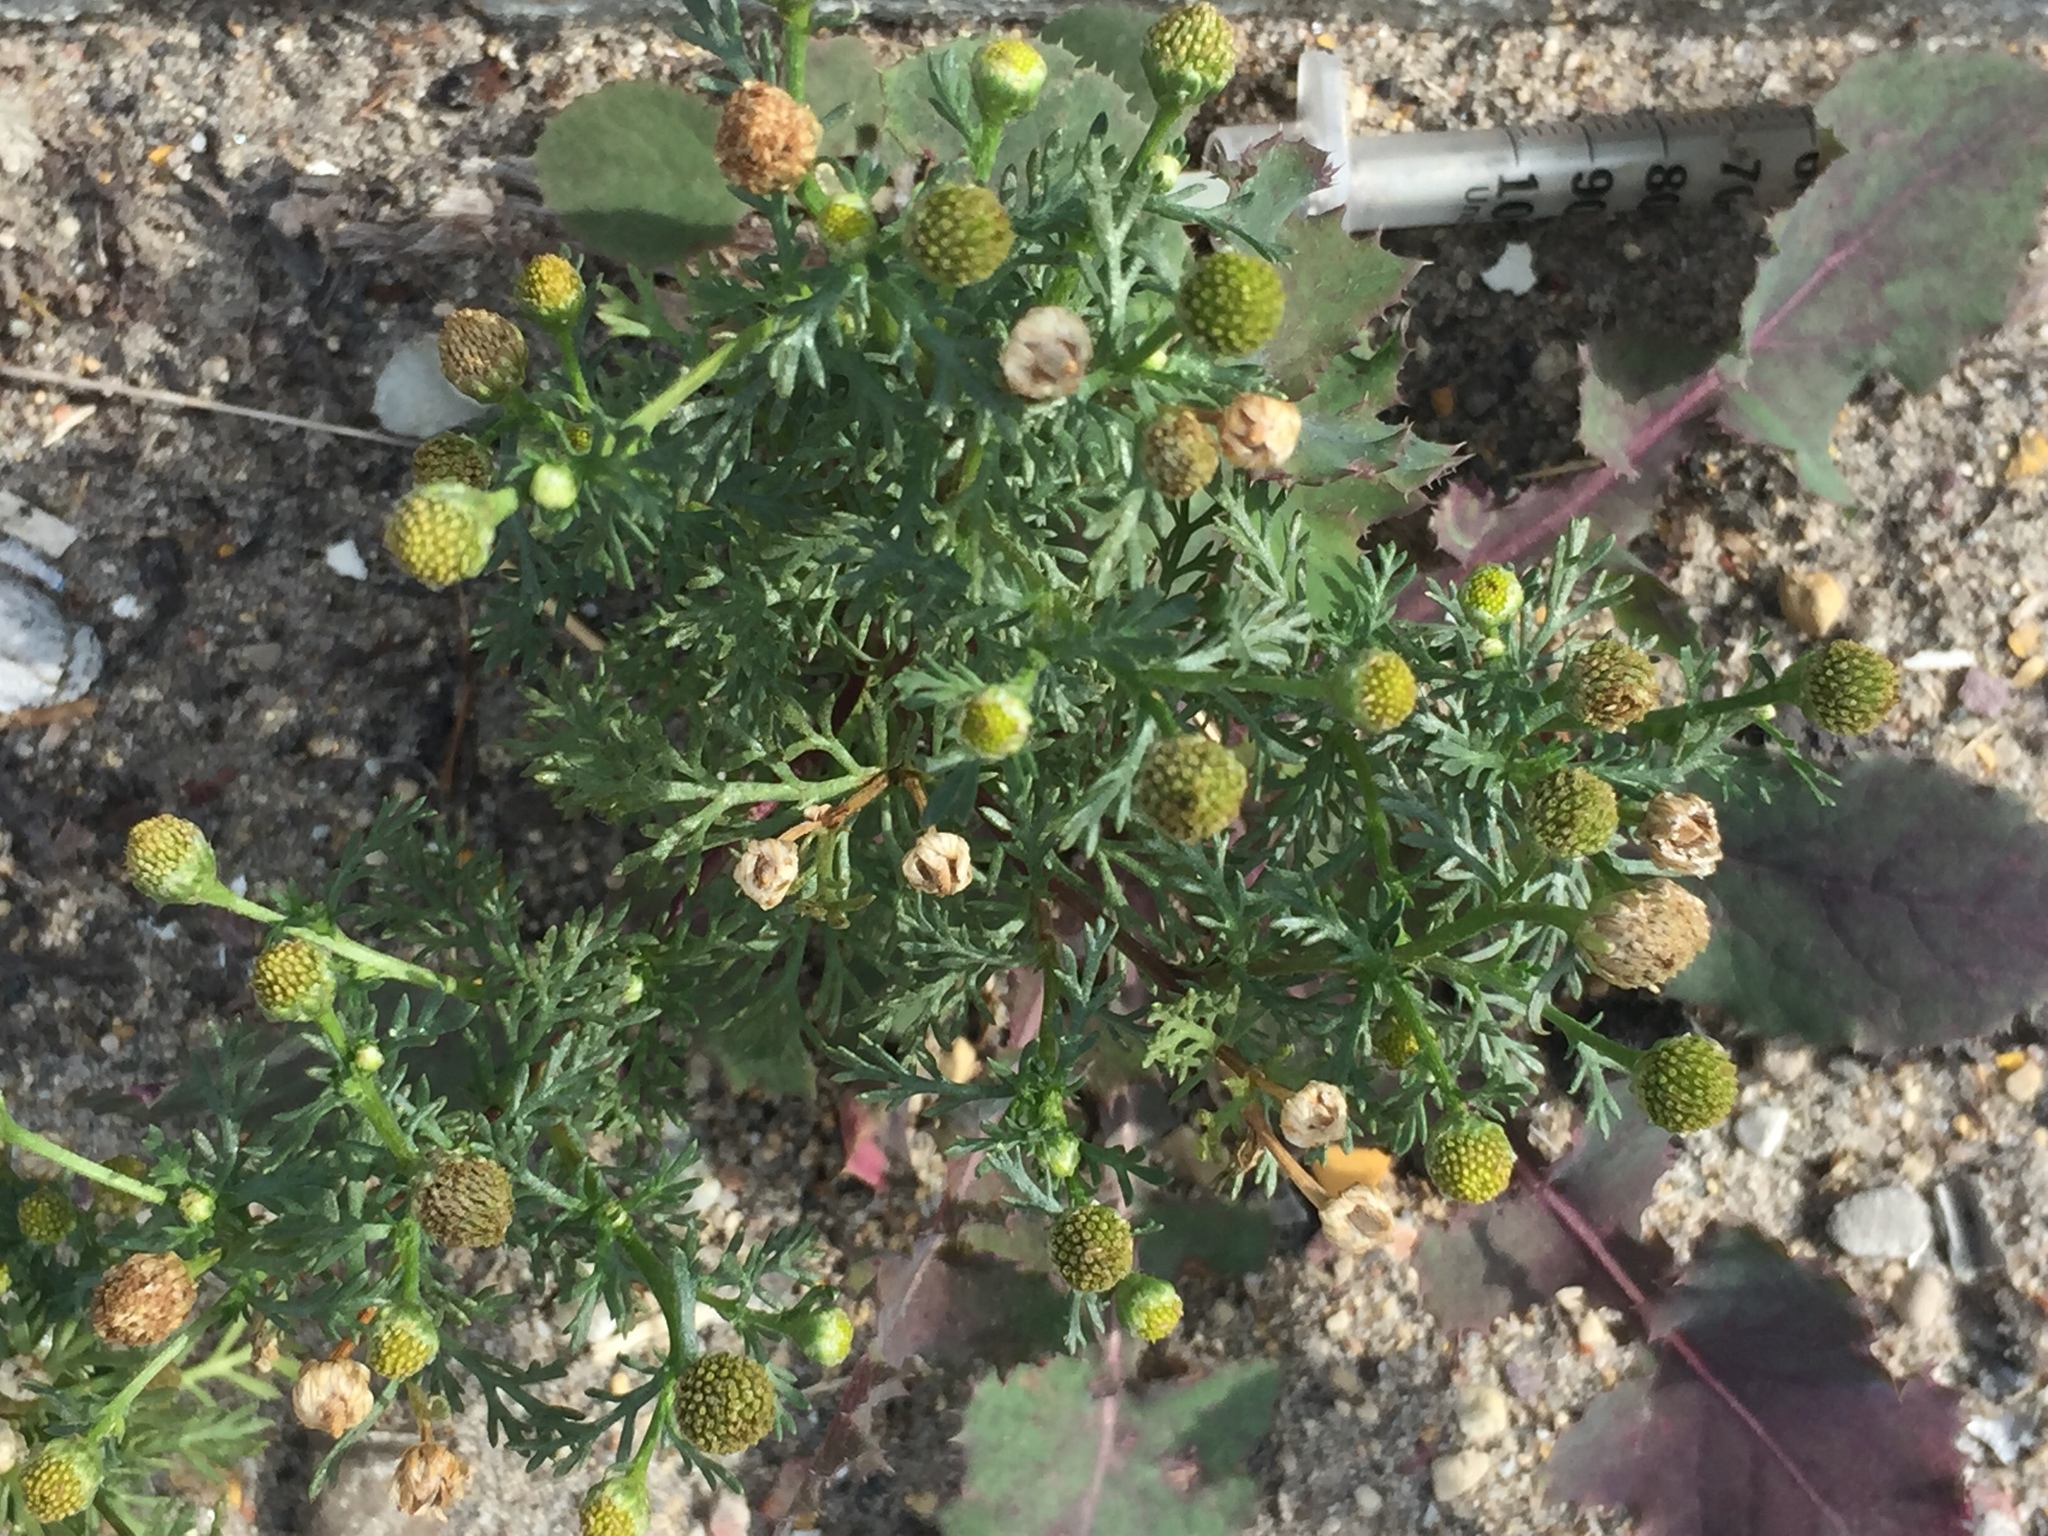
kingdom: Plantae
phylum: Tracheophyta
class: Magnoliopsida
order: Asterales
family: Asteraceae
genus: Matricaria
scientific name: Matricaria discoidea
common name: Disc mayweed
